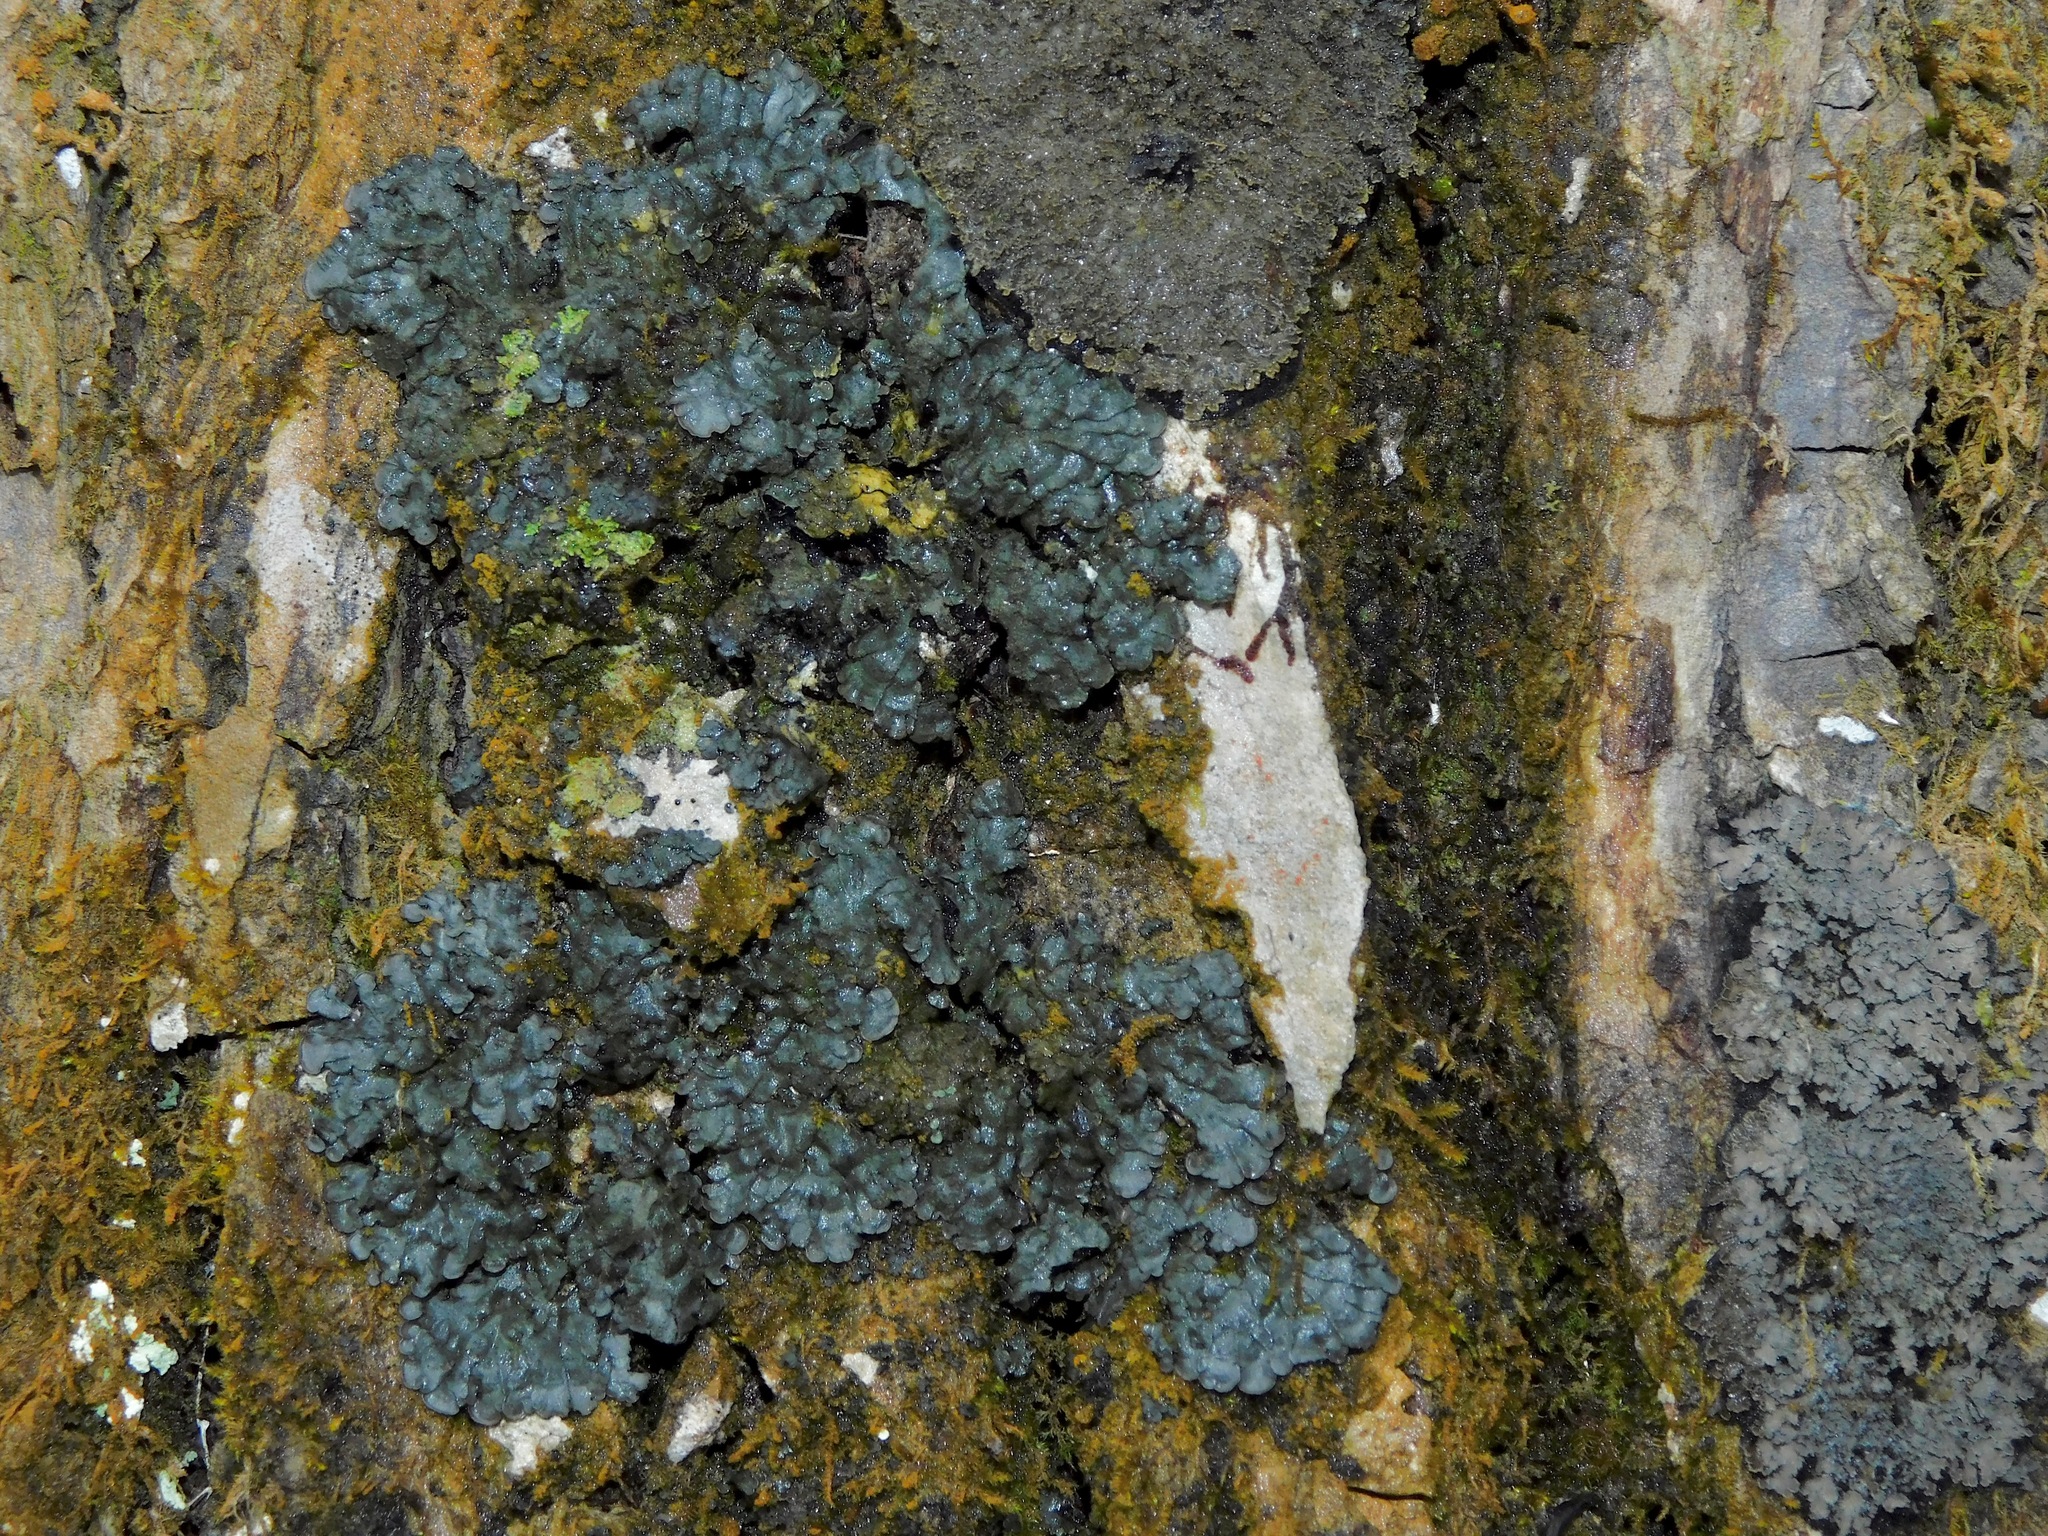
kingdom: Fungi
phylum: Ascomycota
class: Lecanoromycetes
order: Peltigerales
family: Coccocarpiaceae
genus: Coccocarpia
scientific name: Coccocarpia palmicola
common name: Salted shell lichen
